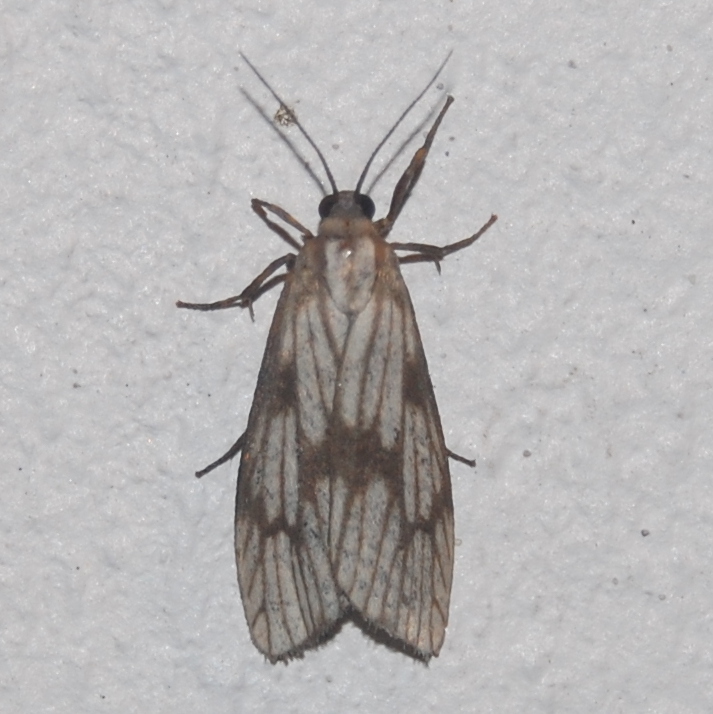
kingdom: Animalia
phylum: Arthropoda
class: Insecta
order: Lepidoptera
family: Erebidae
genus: Euthyone
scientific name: Euthyone celenna
